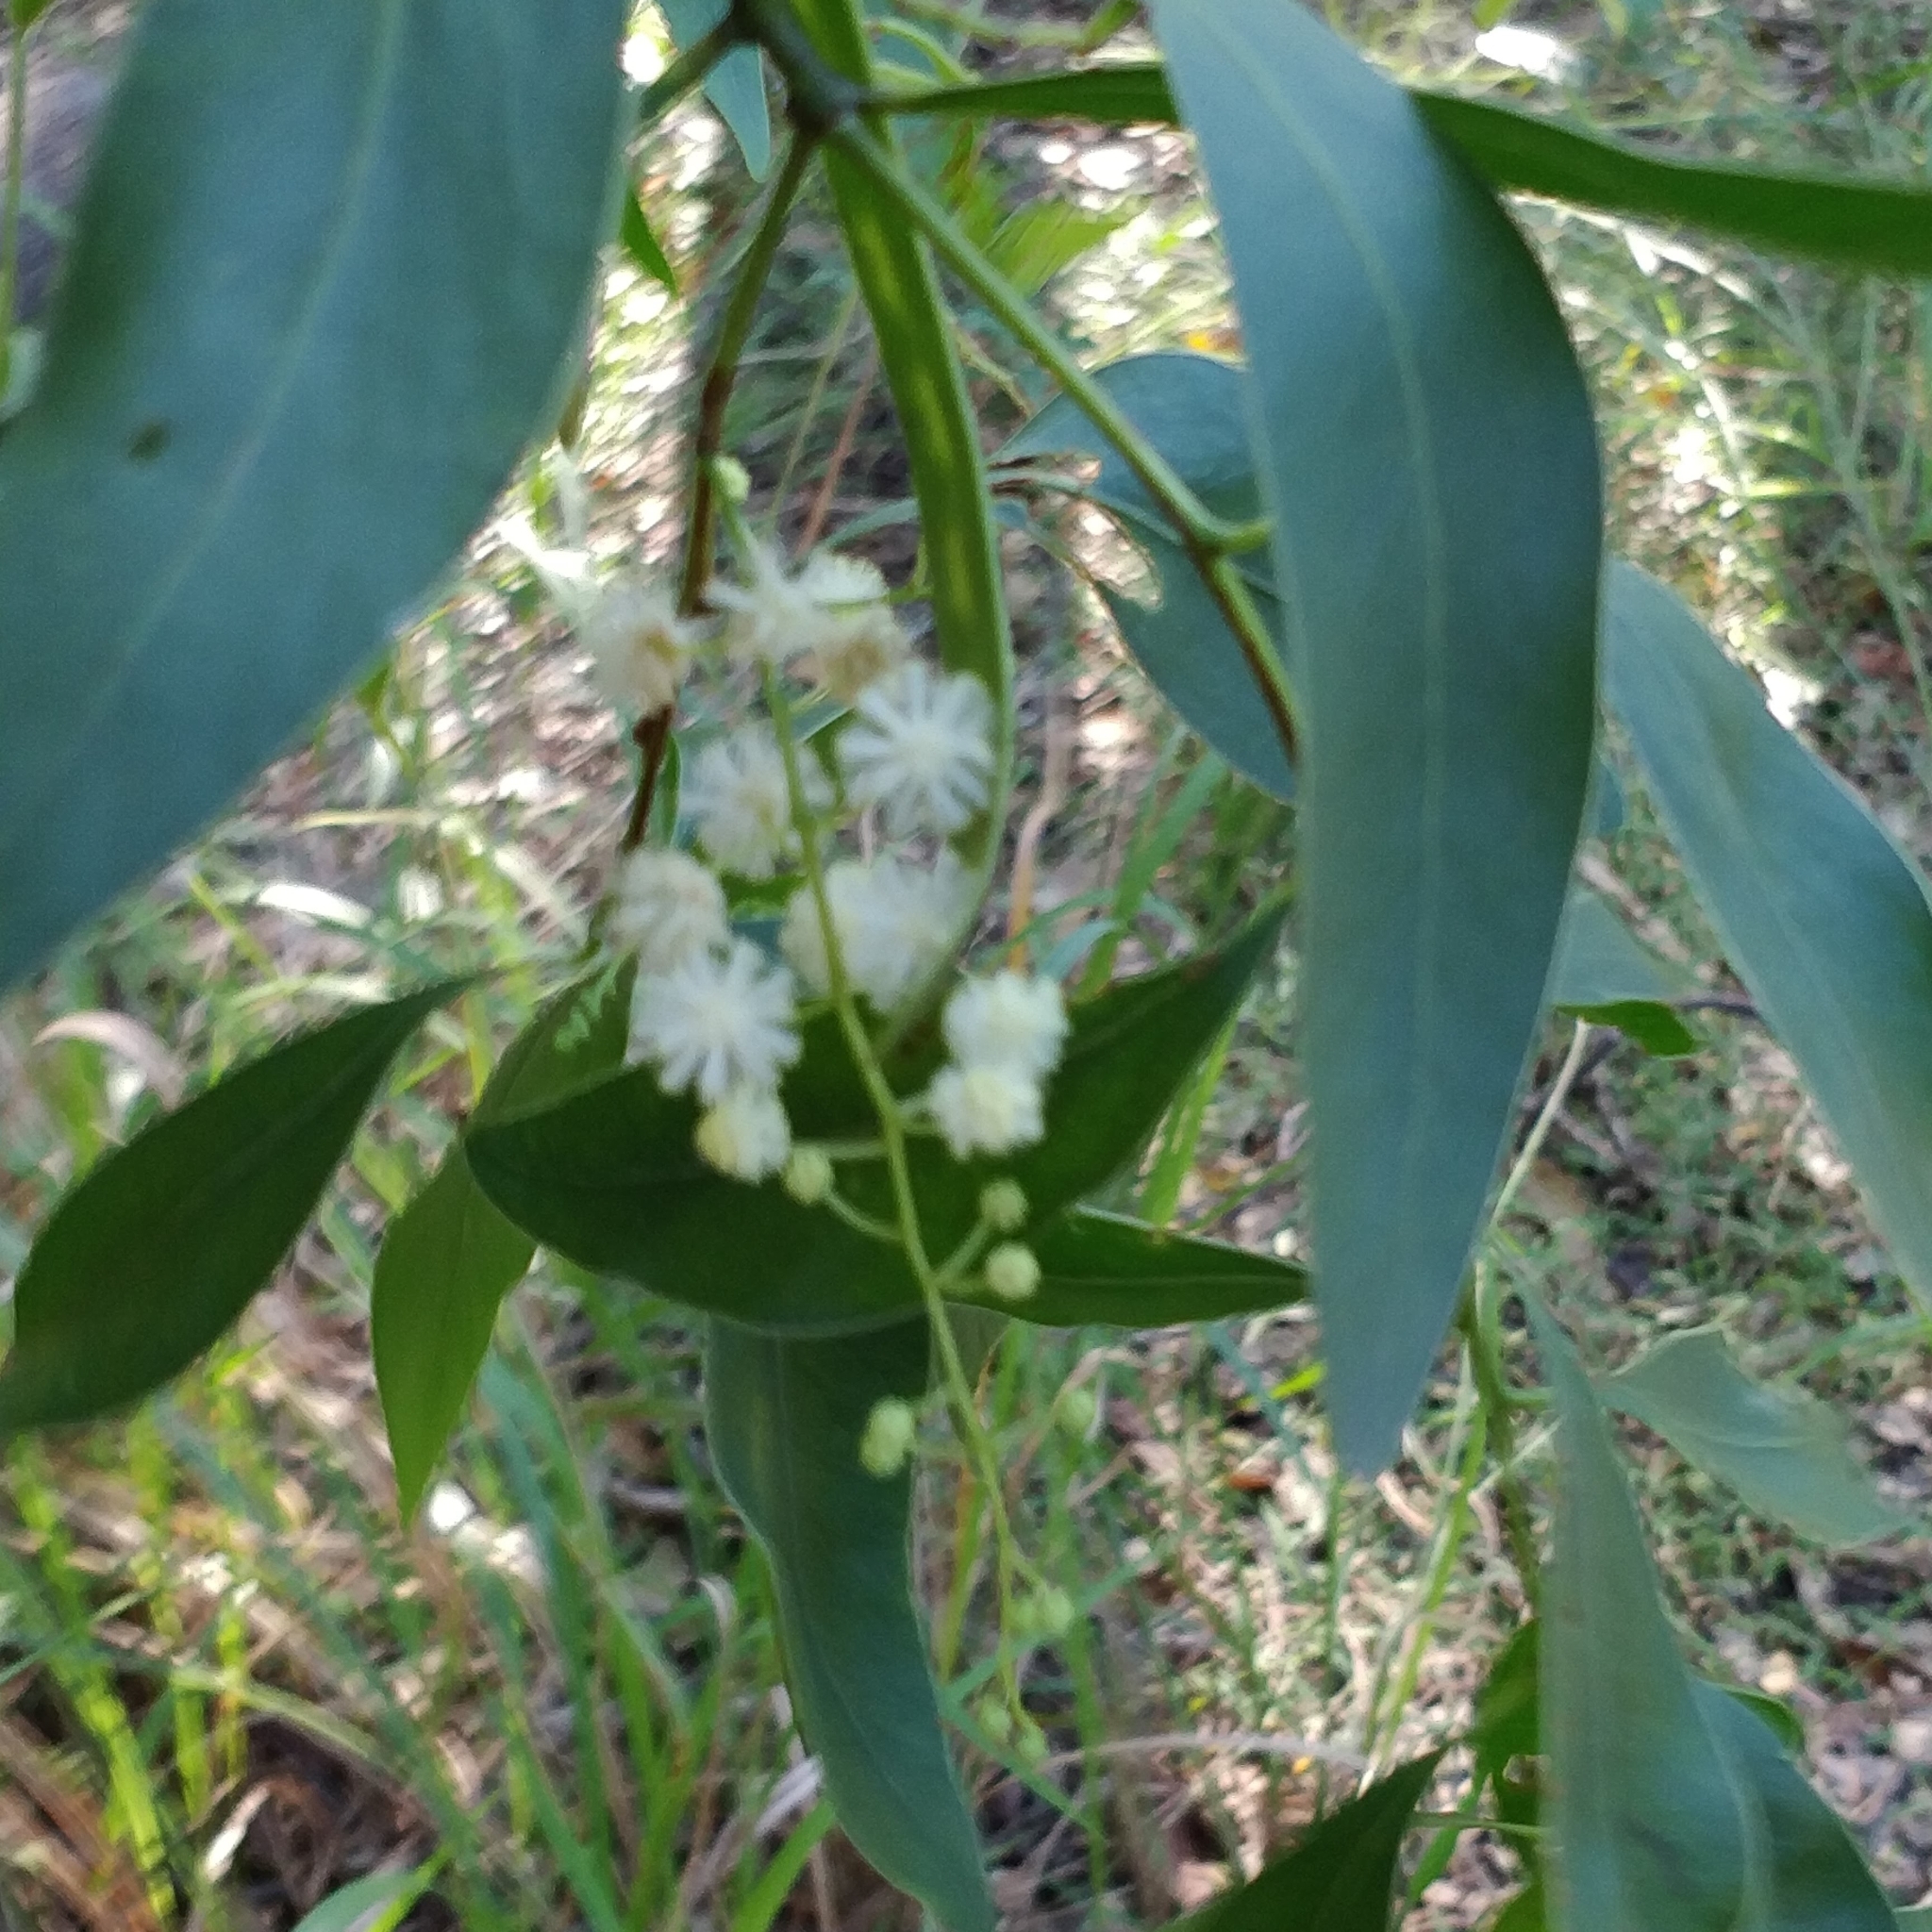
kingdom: Plantae
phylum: Tracheophyta
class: Magnoliopsida
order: Fabales
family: Fabaceae
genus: Acacia
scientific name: Acacia falcata
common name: Burra acacia
